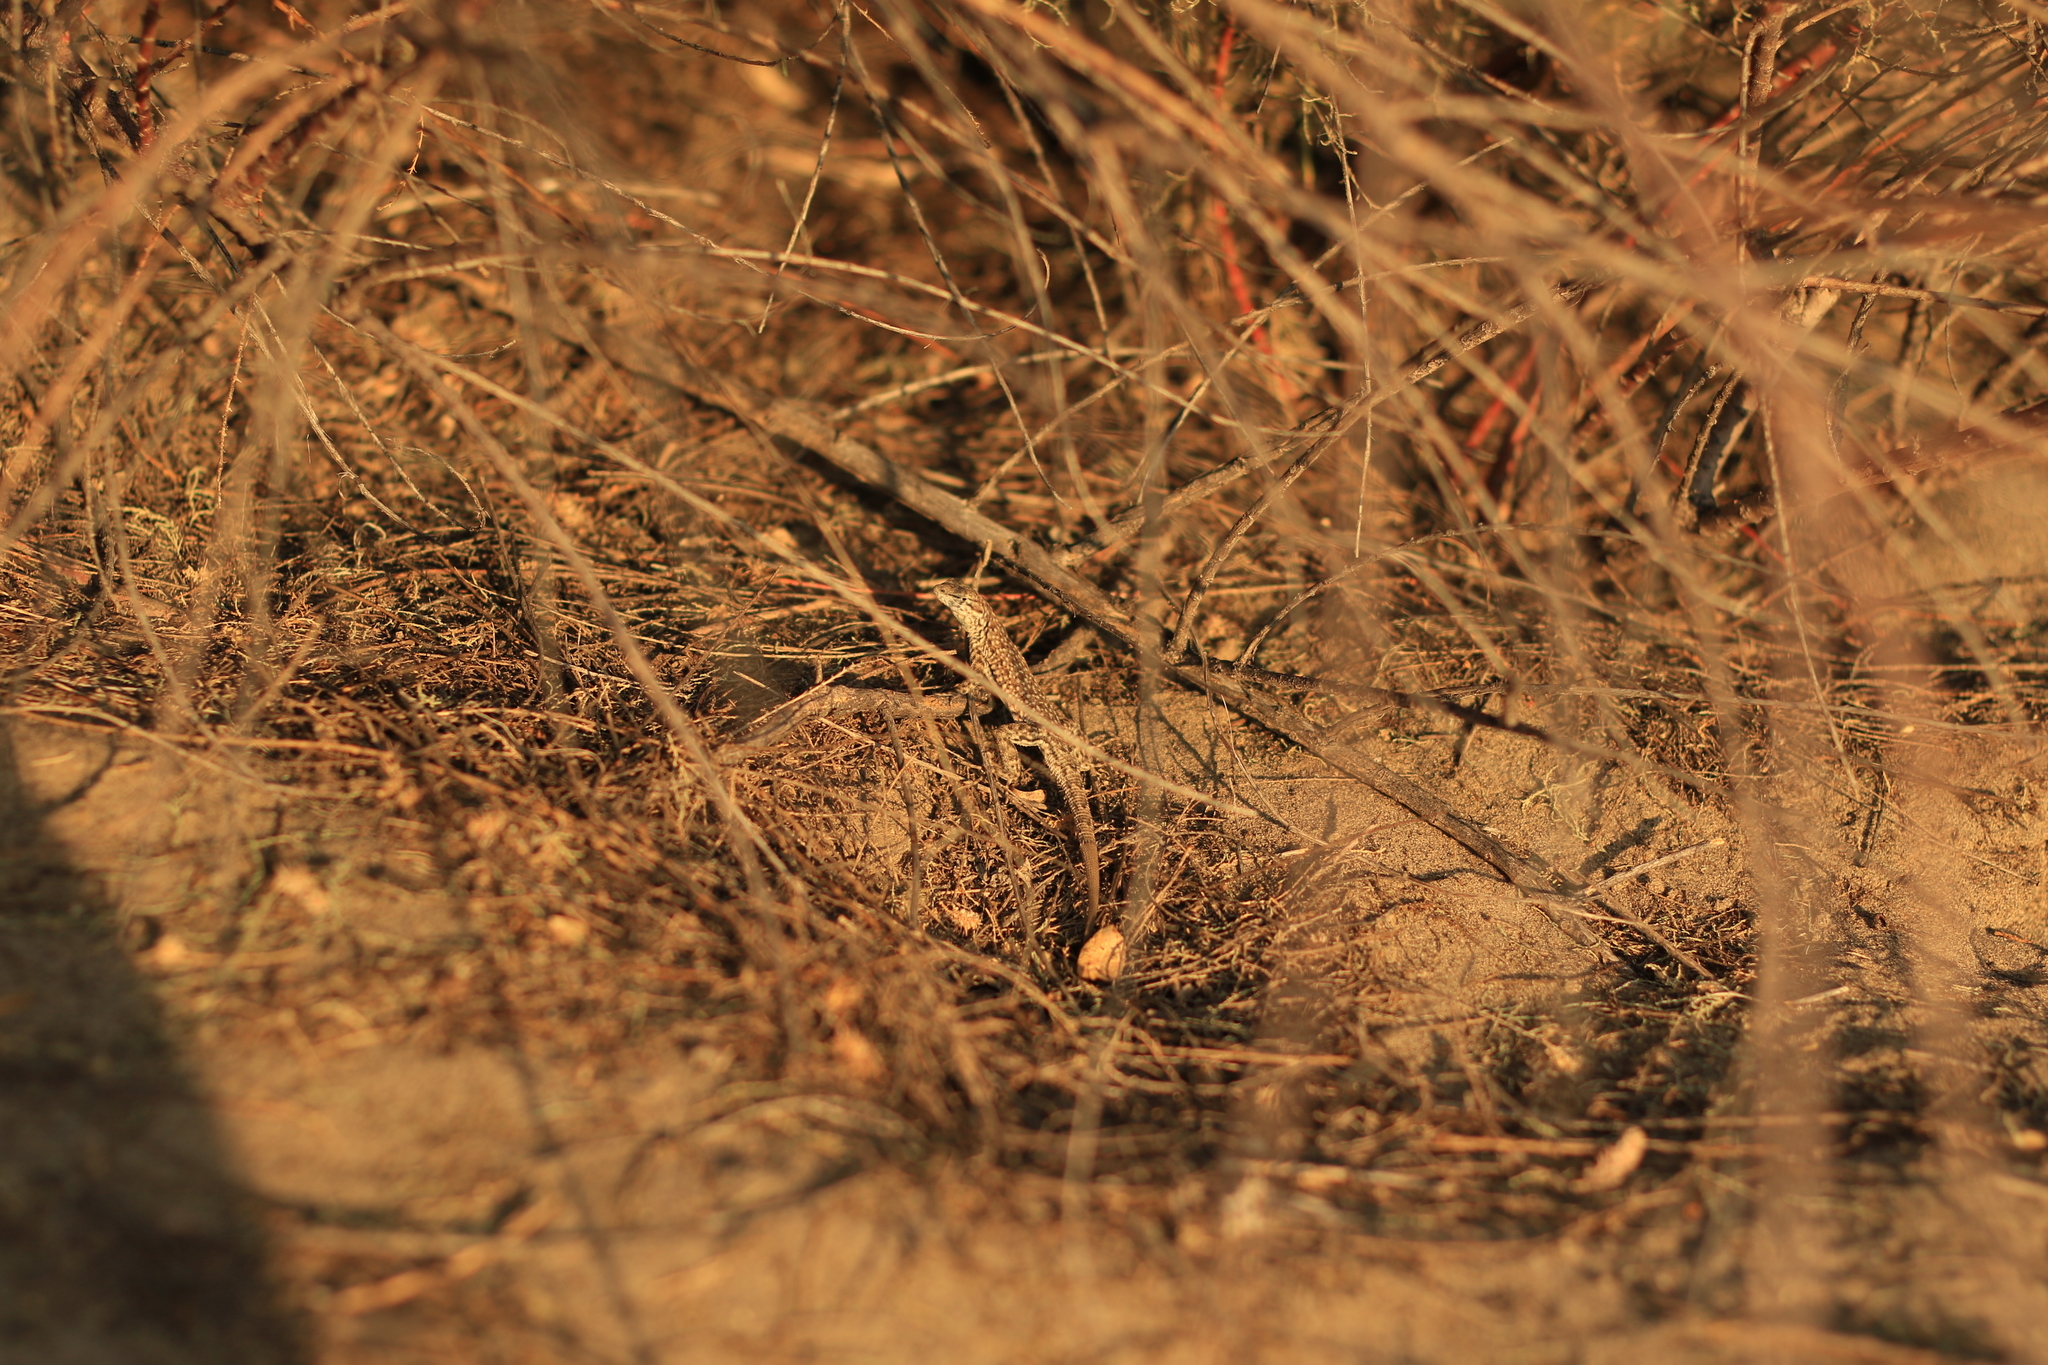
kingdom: Animalia
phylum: Chordata
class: Squamata
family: Phrynosomatidae
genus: Uta
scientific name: Uta stansburiana
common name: Side-blotched lizard
